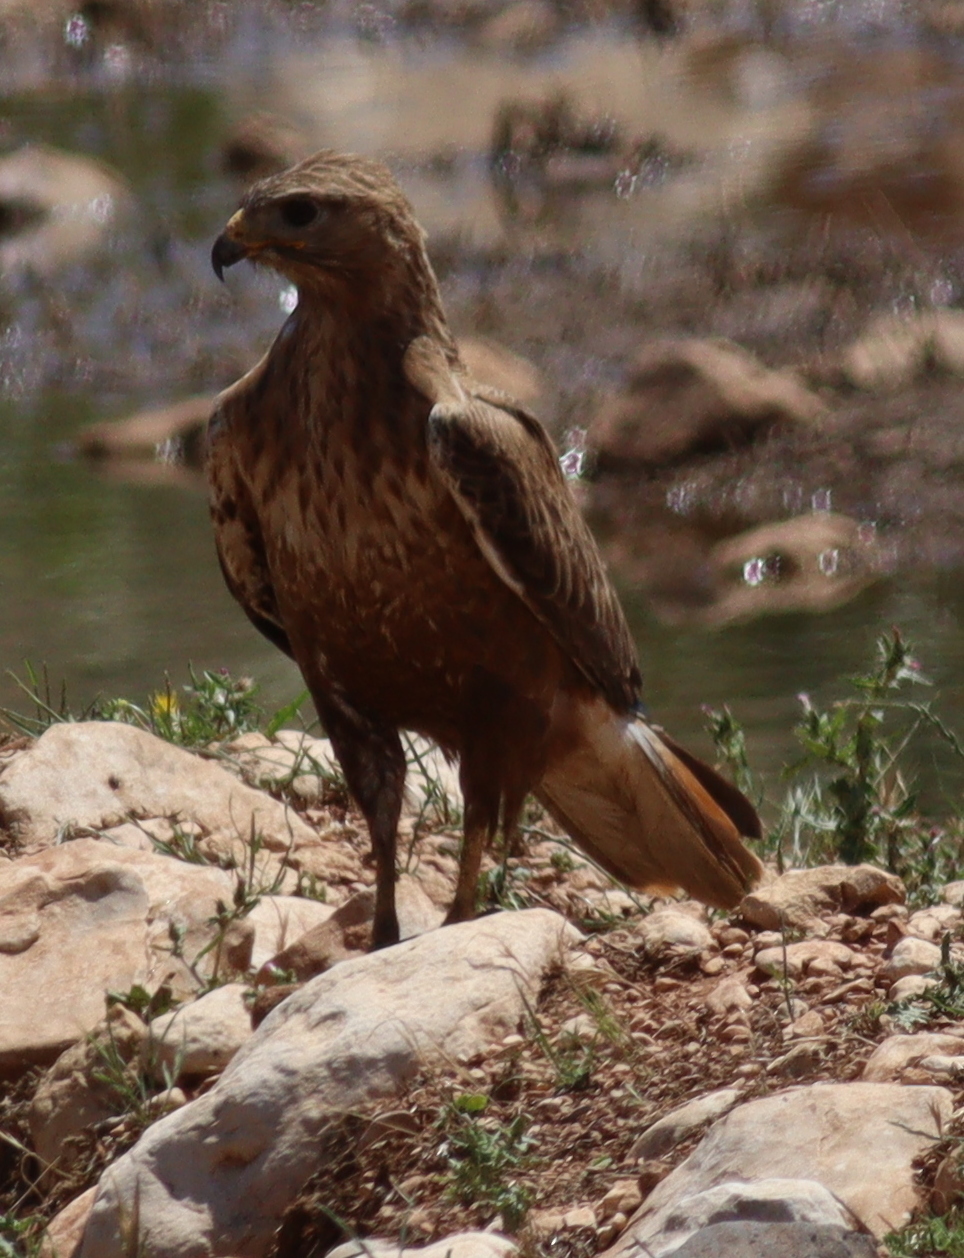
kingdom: Animalia
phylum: Chordata
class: Aves
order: Accipitriformes
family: Accipitridae
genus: Buteo
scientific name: Buteo rufinus
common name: Long-legged buzzard
